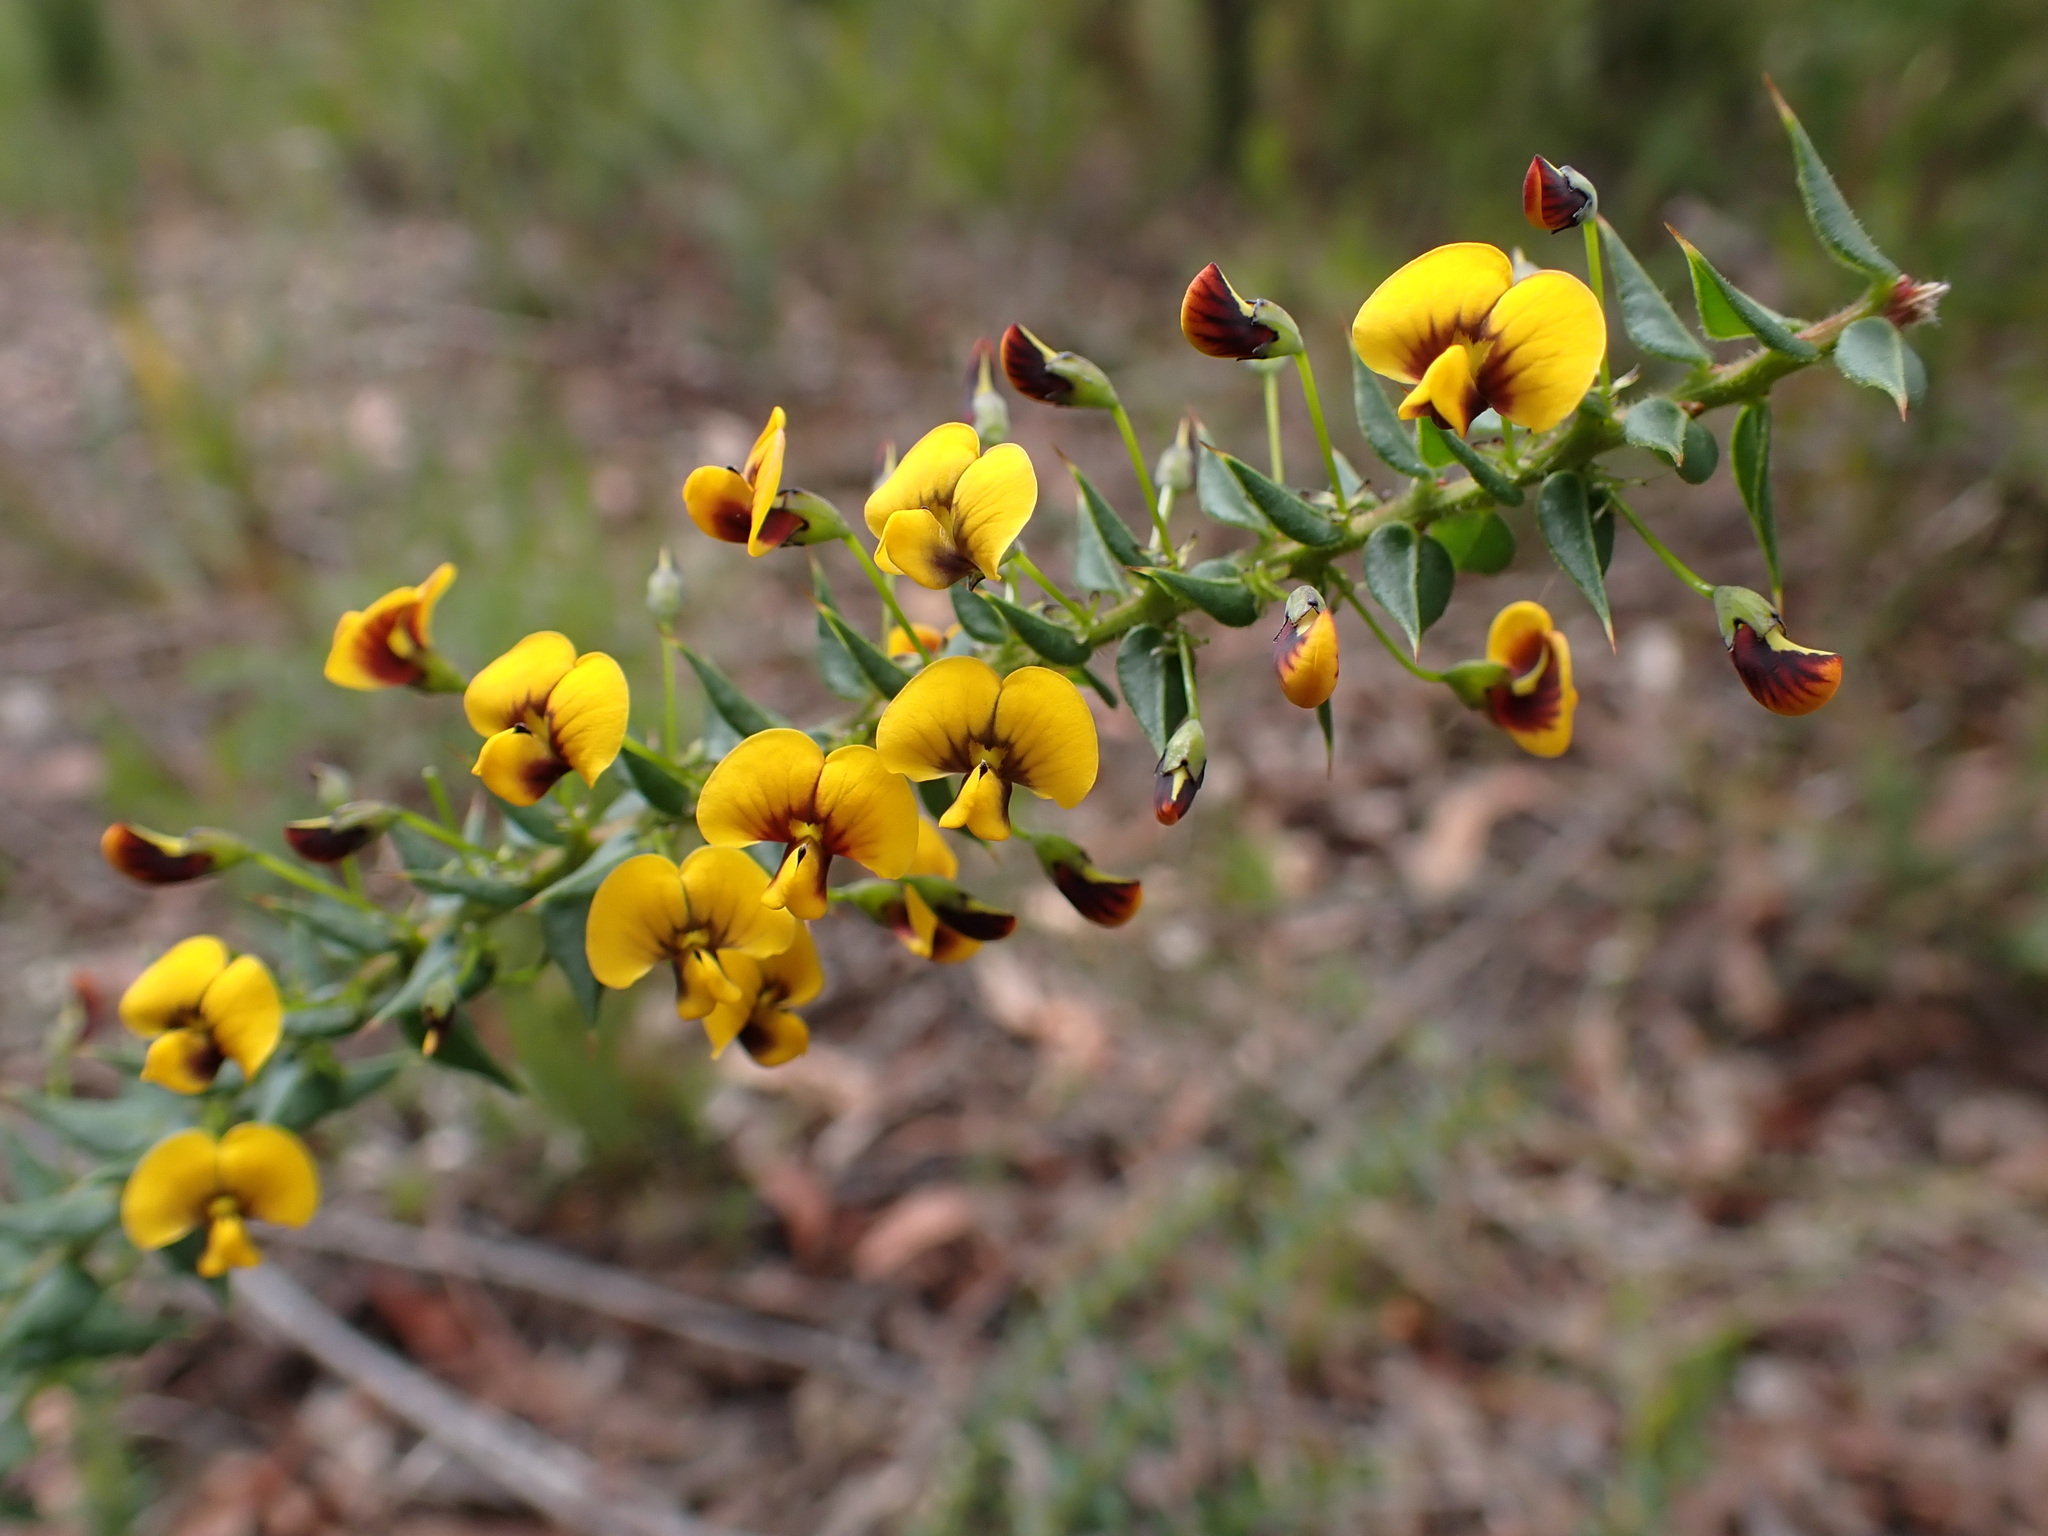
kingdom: Plantae
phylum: Tracheophyta
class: Magnoliopsida
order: Fabales
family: Fabaceae
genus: Daviesia
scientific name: Daviesia nova-anglica
